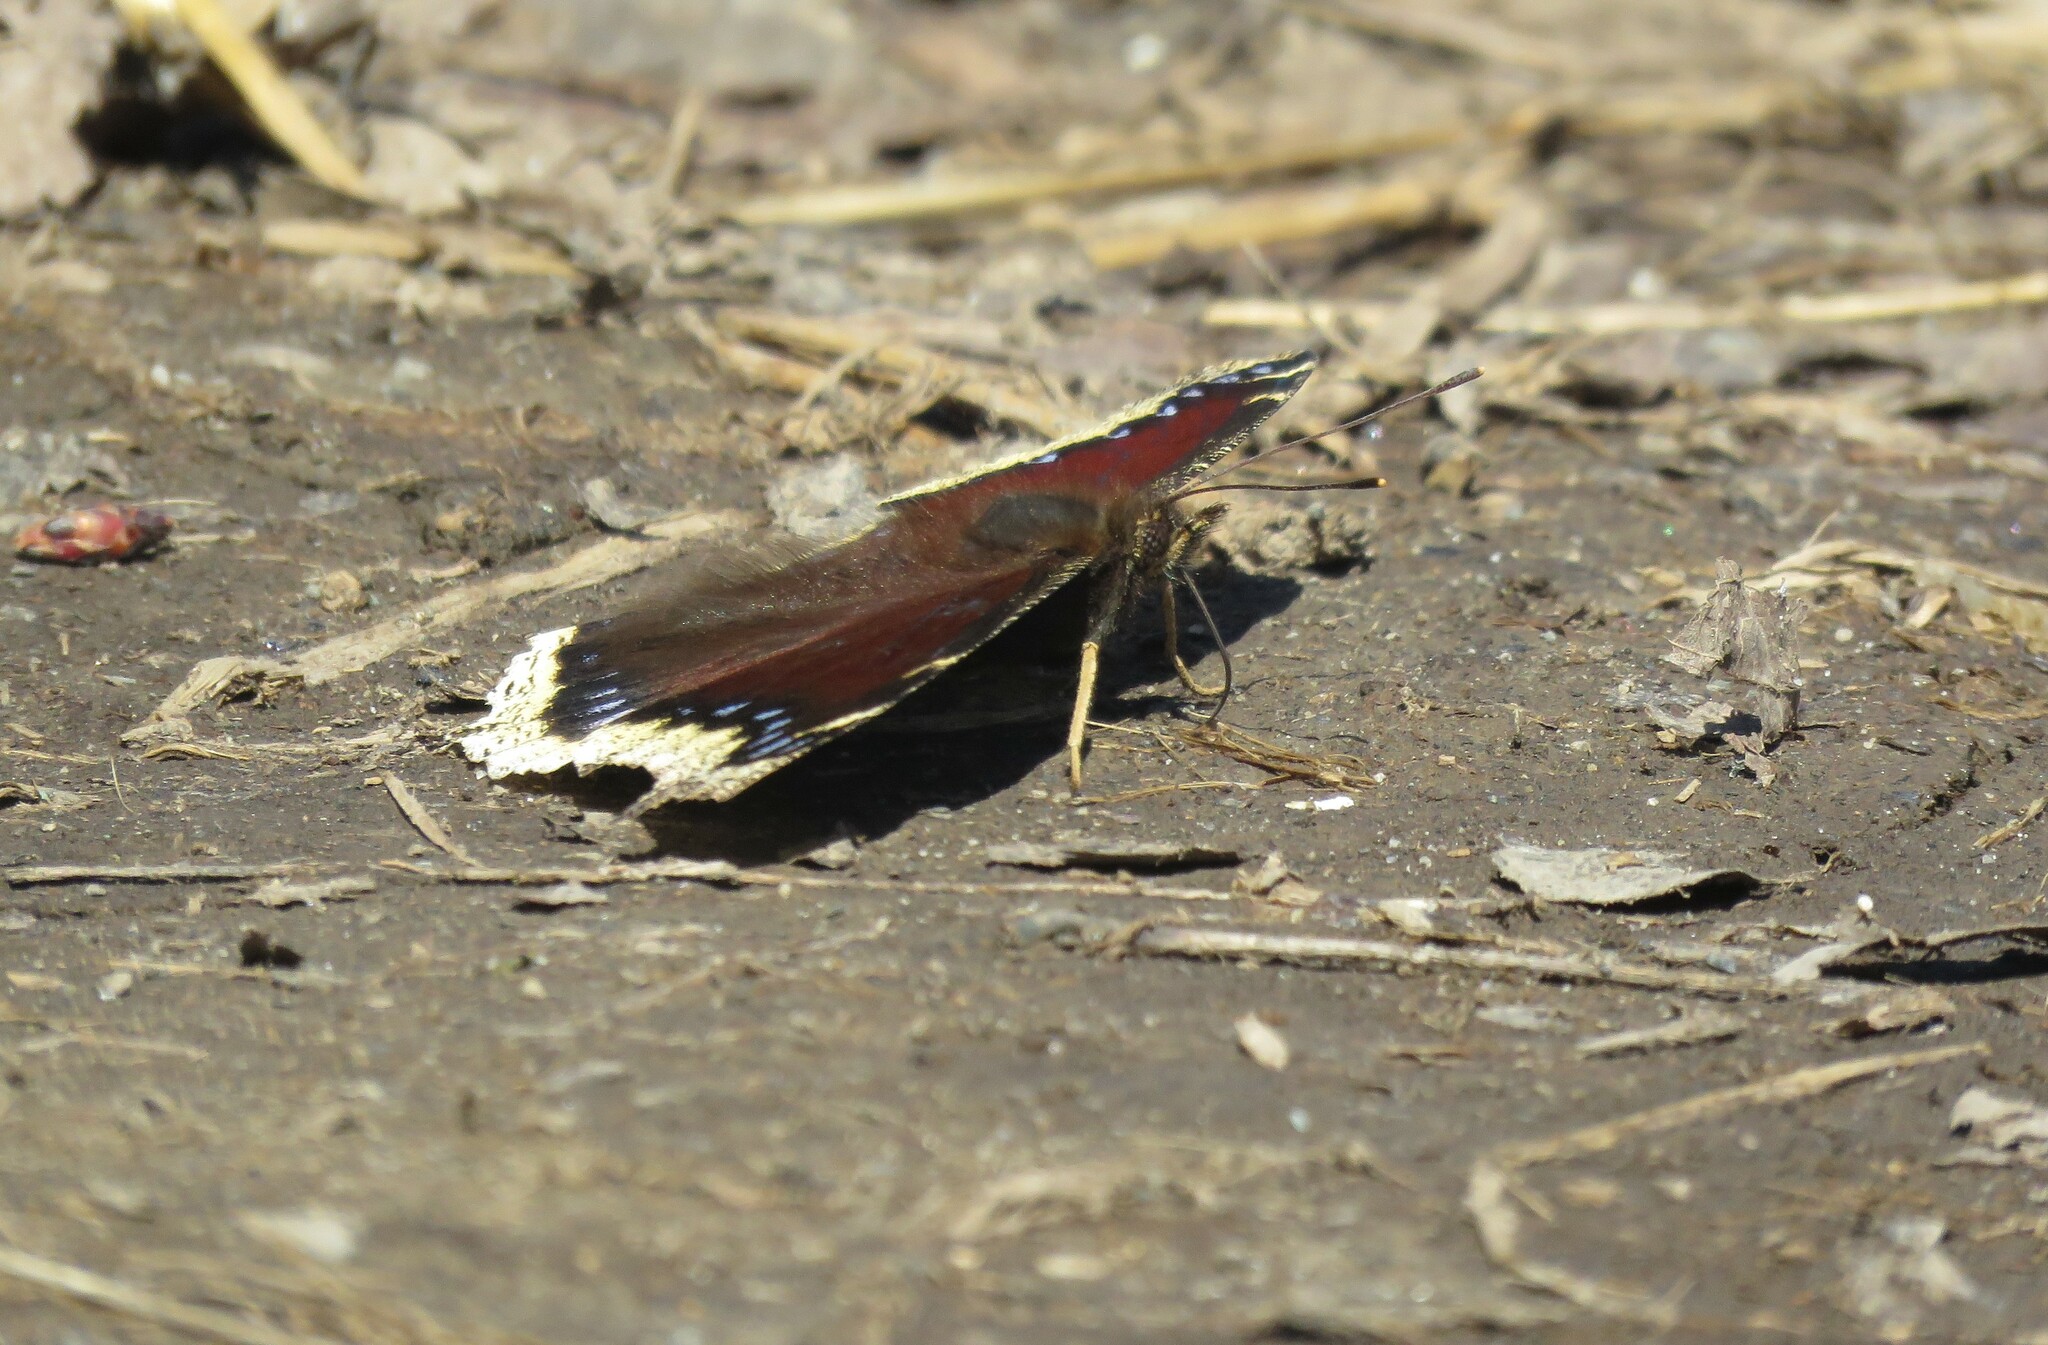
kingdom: Animalia
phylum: Arthropoda
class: Insecta
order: Lepidoptera
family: Nymphalidae
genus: Nymphalis
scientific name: Nymphalis antiopa
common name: Camberwell beauty
